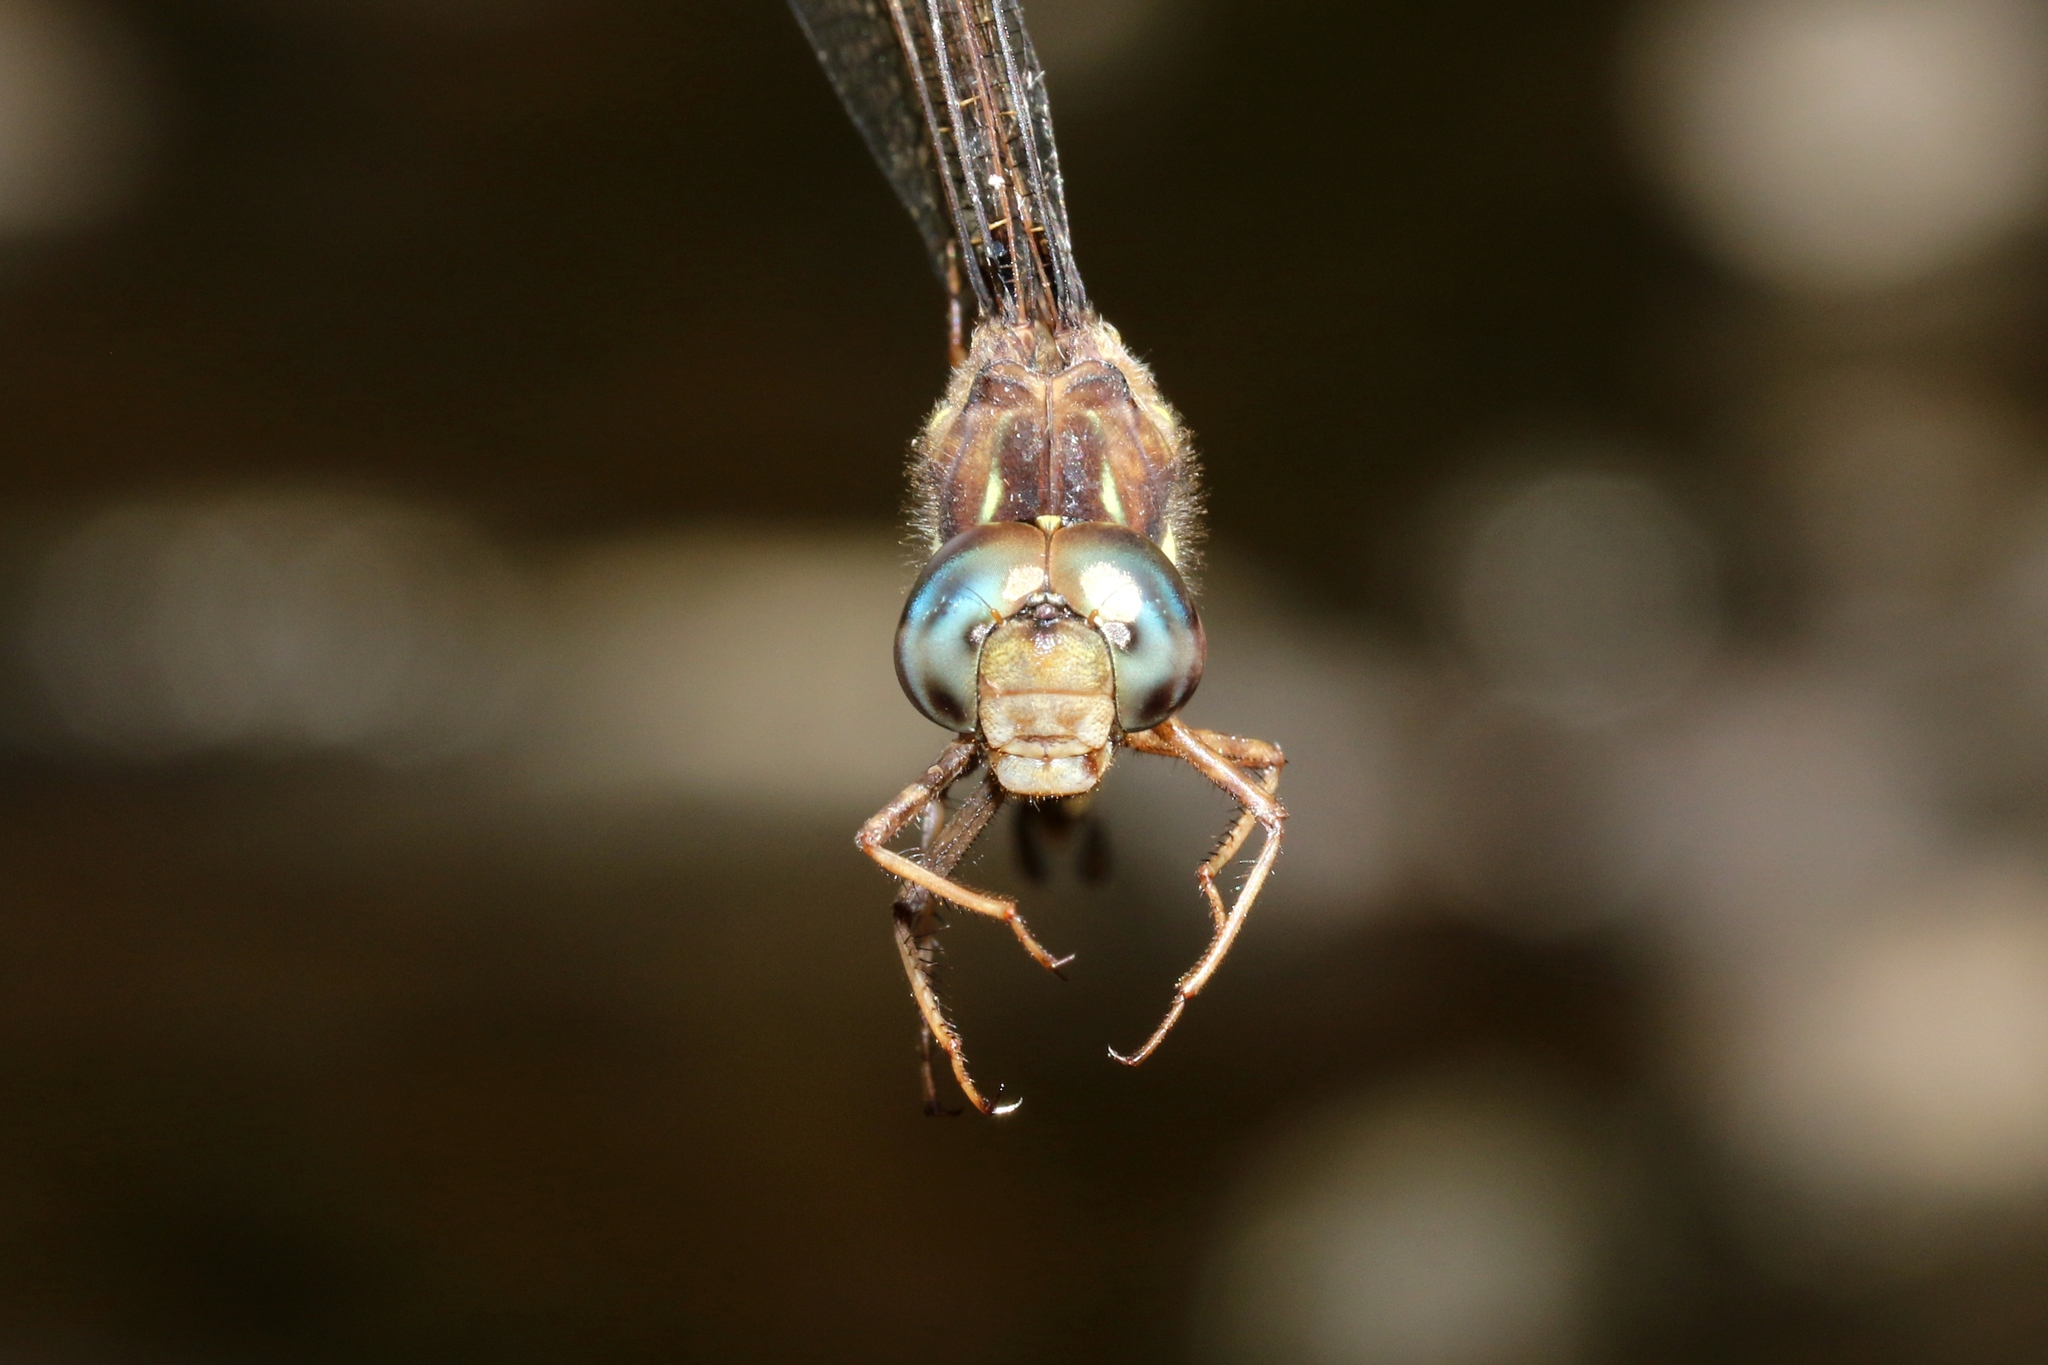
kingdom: Animalia
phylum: Arthropoda
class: Insecta
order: Odonata
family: Aeshnidae
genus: Boyeria
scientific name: Boyeria vinosa
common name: Fawn darner
